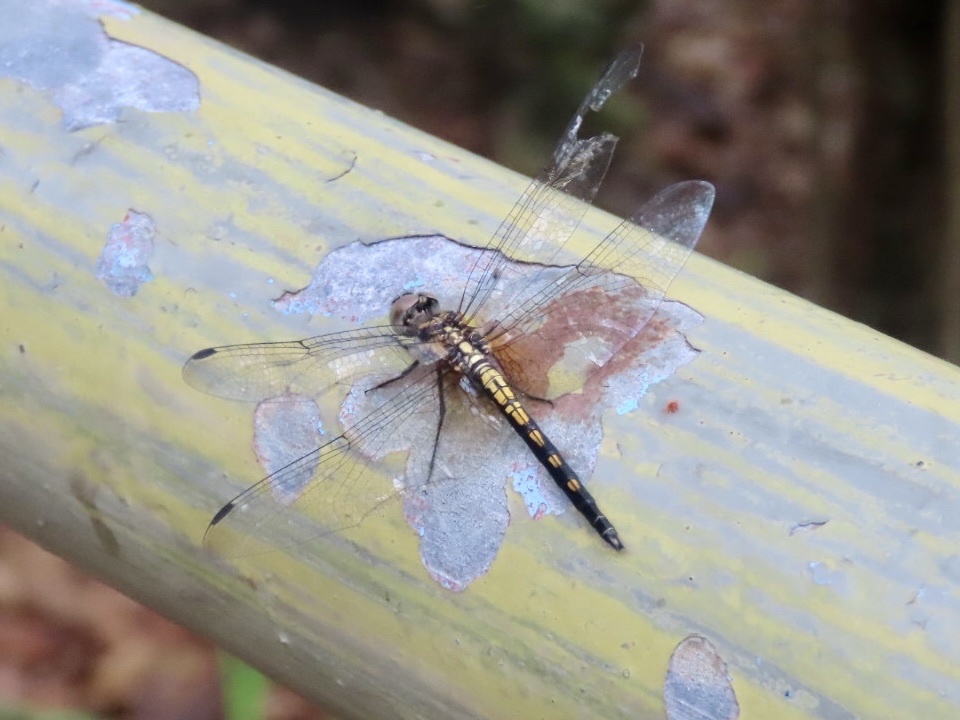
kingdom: Animalia
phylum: Arthropoda
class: Insecta
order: Odonata
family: Libellulidae
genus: Trithemis
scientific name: Trithemis festiva
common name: Indigo dropwing
